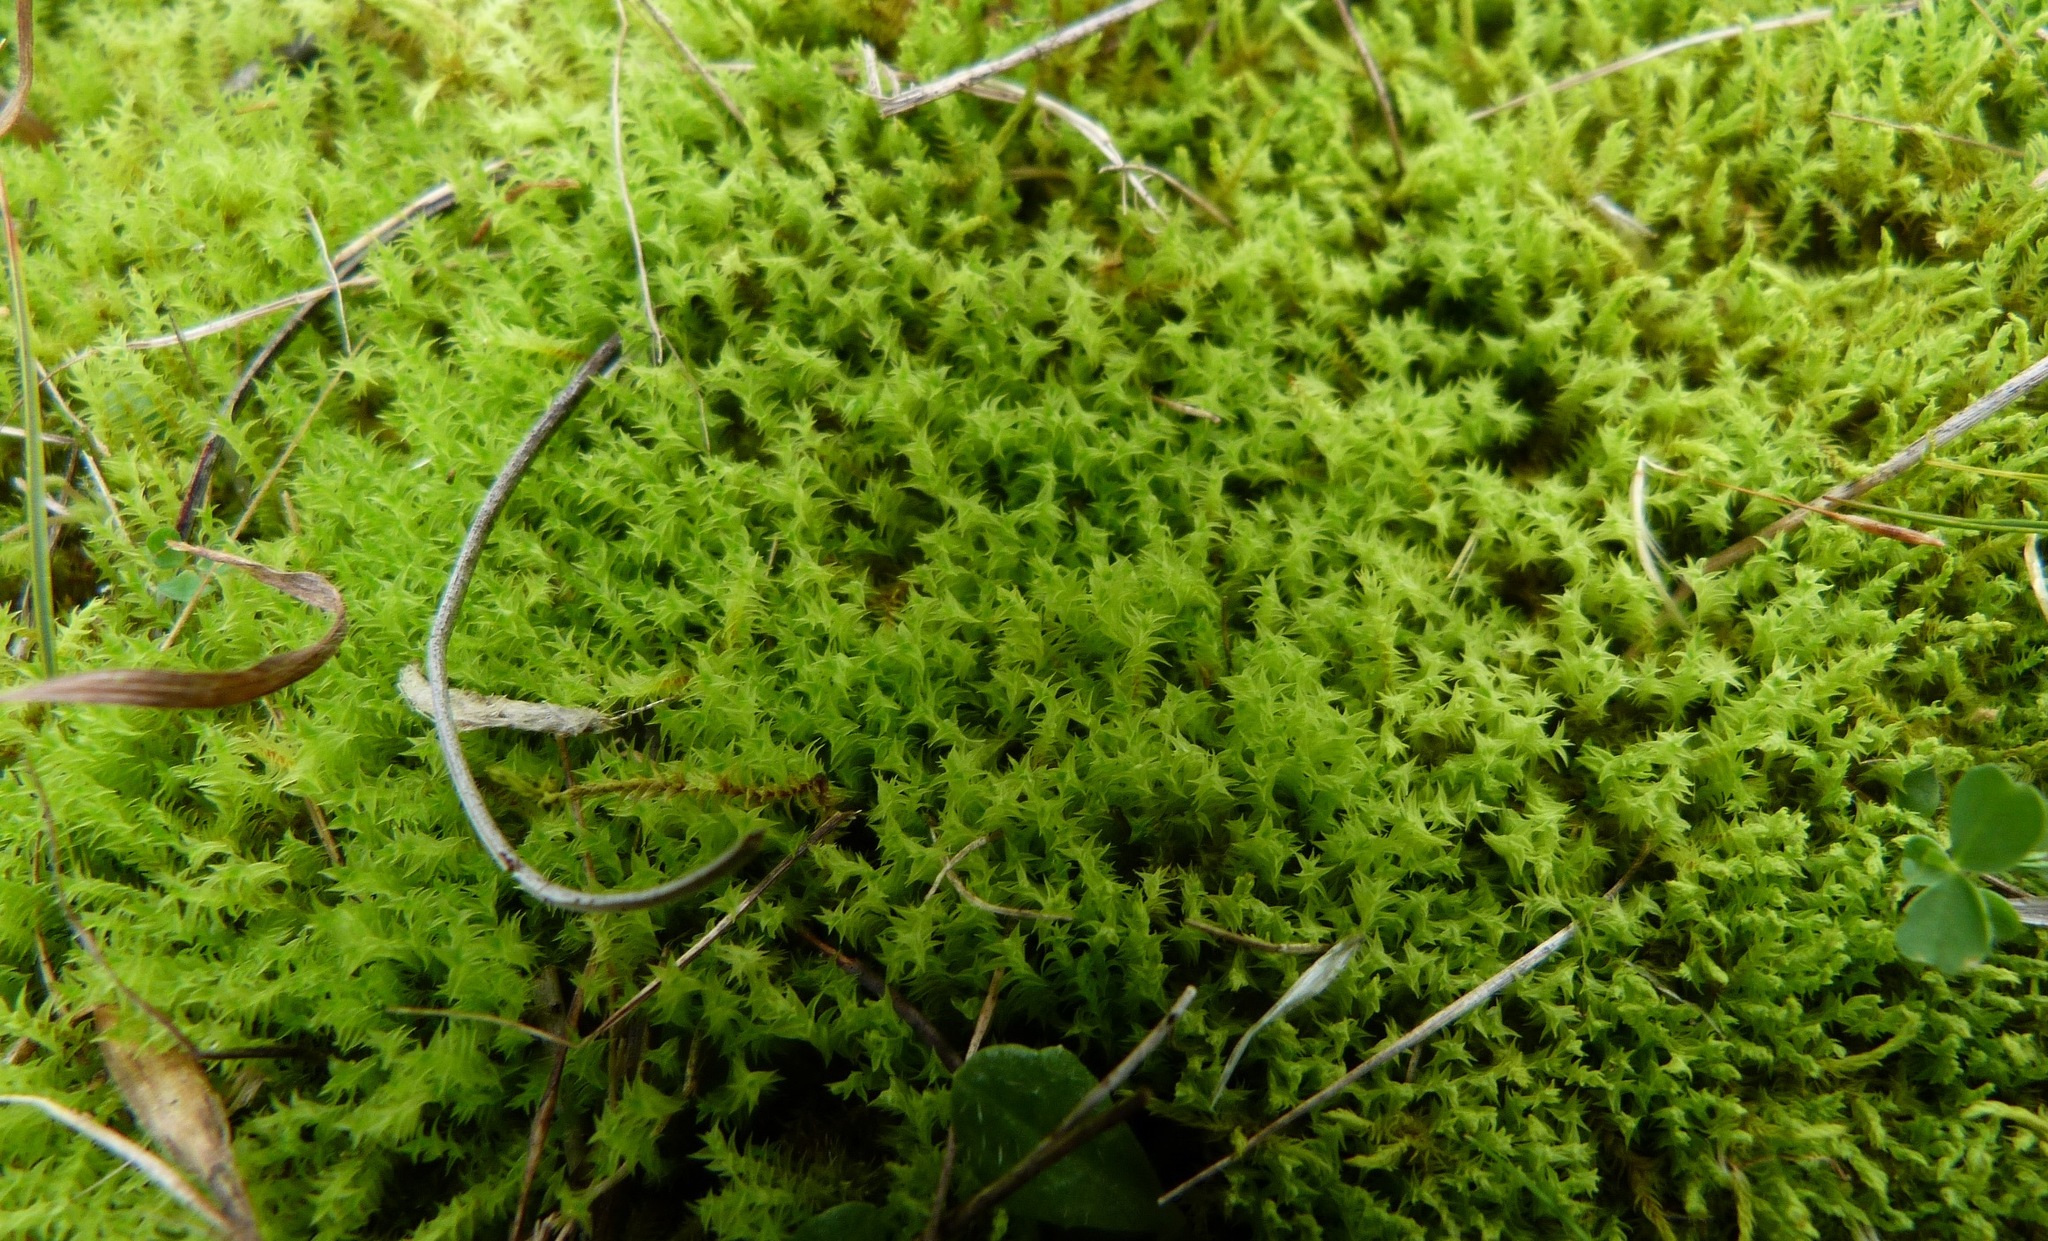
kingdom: Plantae
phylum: Bryophyta
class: Bryopsida
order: Pottiales
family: Pottiaceae
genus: Triquetrella
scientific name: Triquetrella papillata
